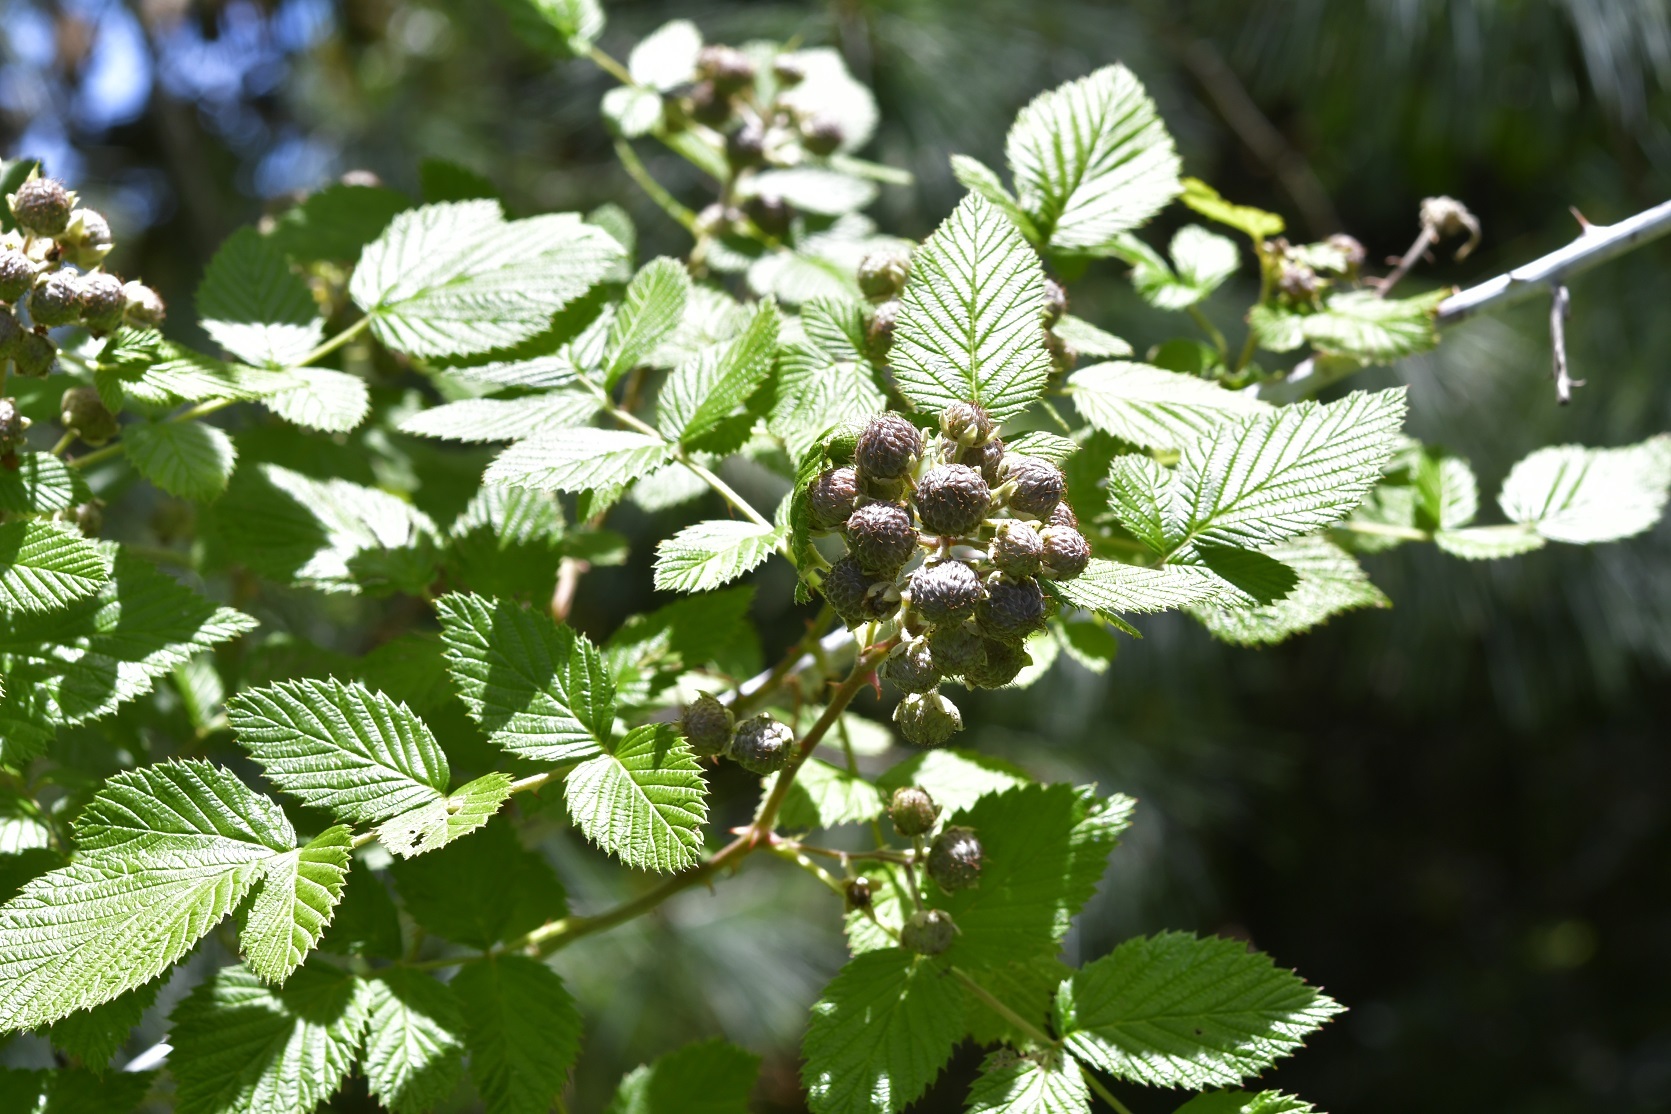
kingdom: Plantae
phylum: Tracheophyta
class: Magnoliopsida
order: Rosales
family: Rosaceae
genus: Rubus
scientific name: Rubus niveus
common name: Snowpeaks raspberry
